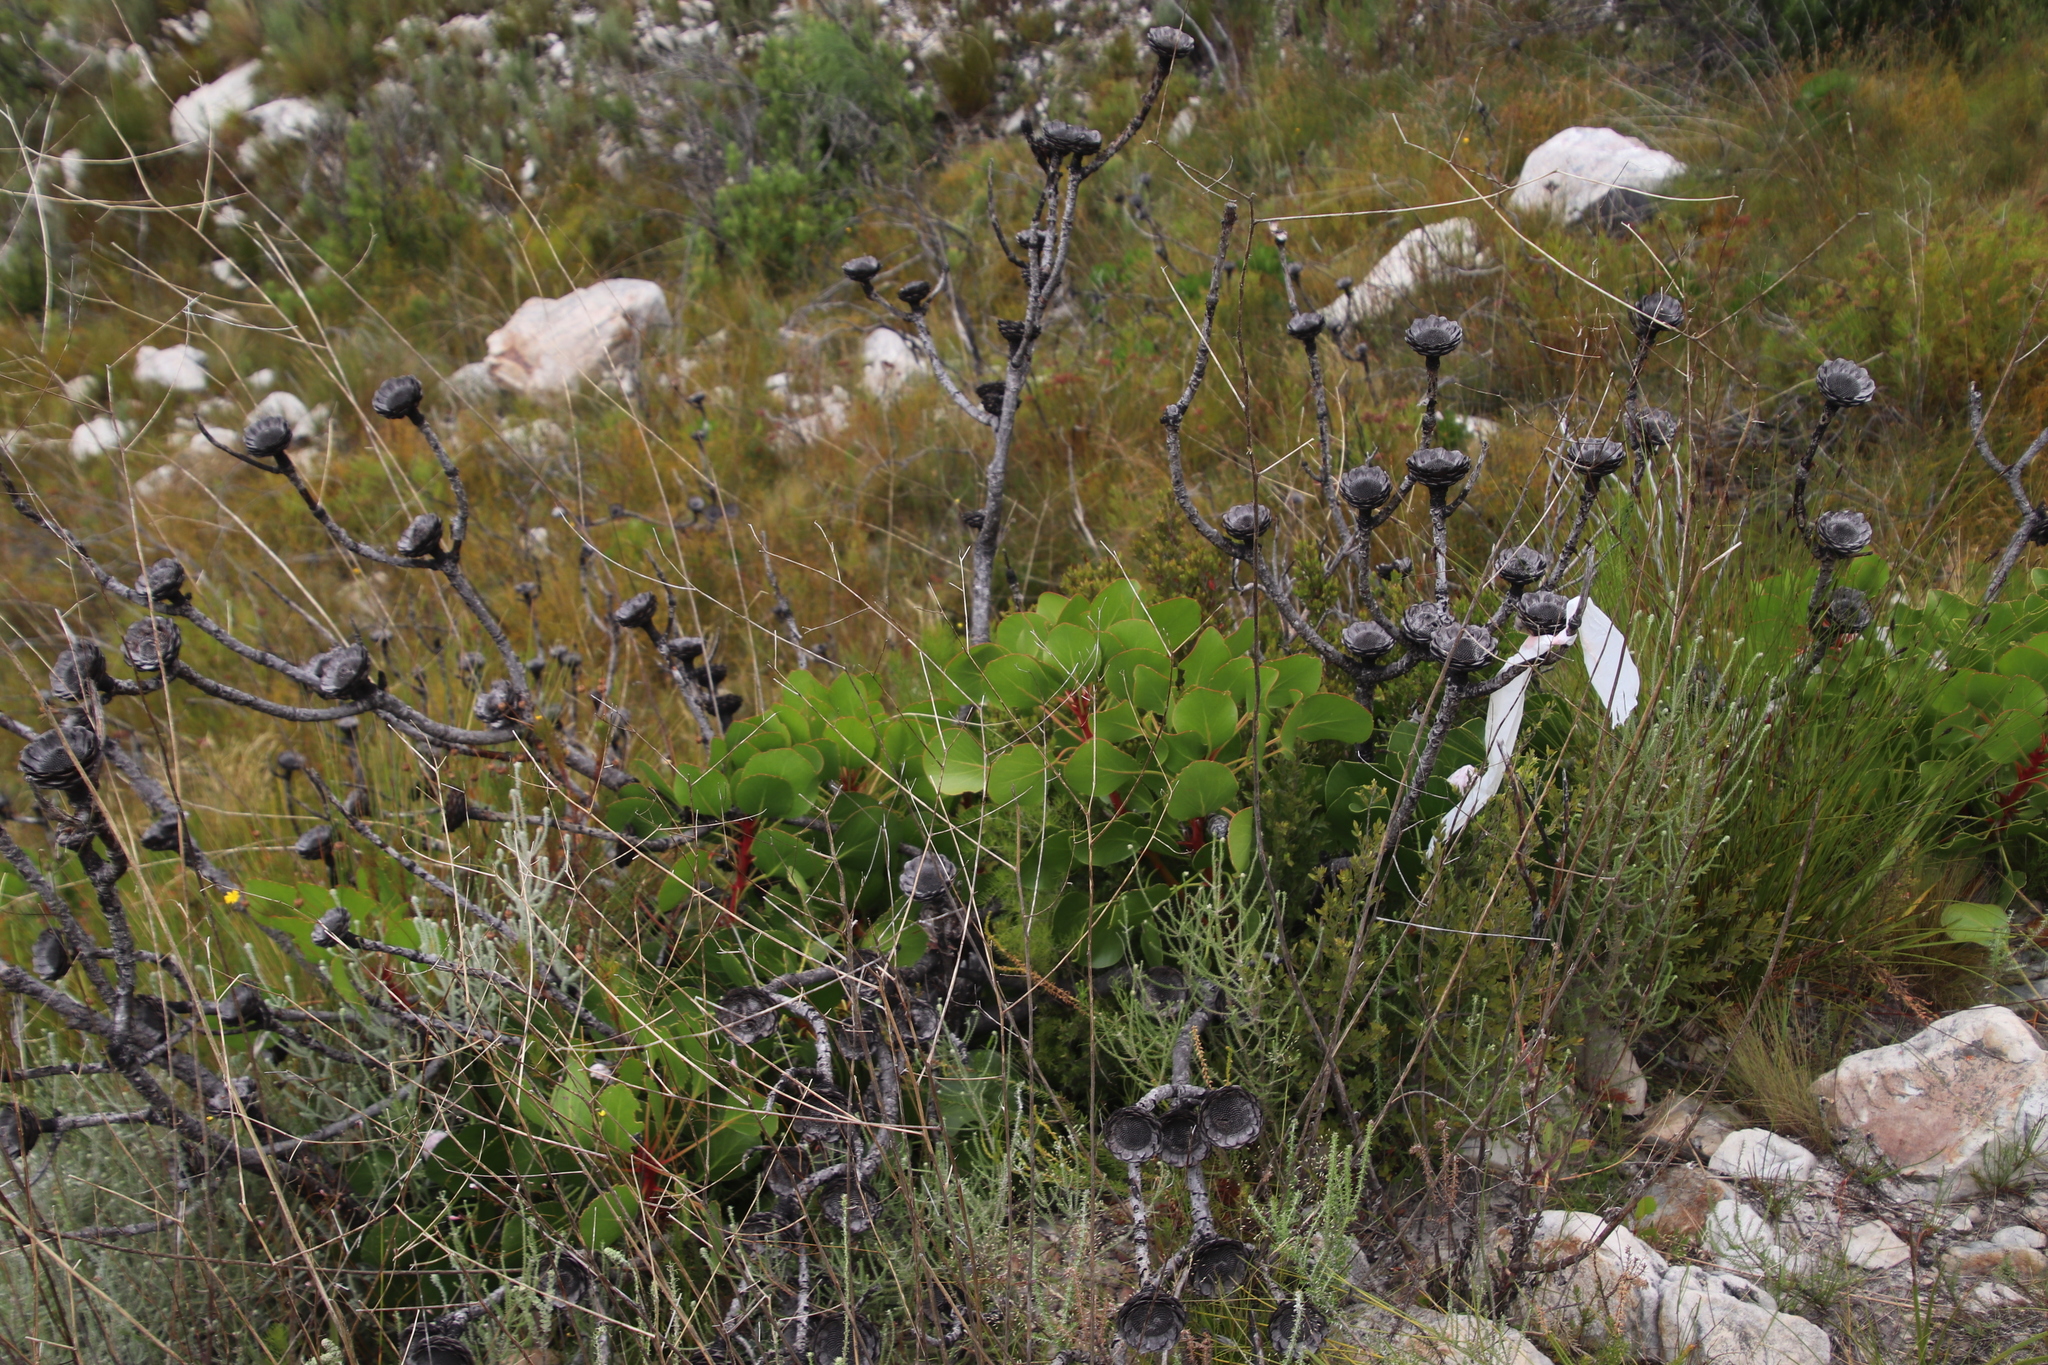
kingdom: Plantae
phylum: Tracheophyta
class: Magnoliopsida
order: Proteales
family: Proteaceae
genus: Protea
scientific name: Protea cynaroides
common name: King protea
